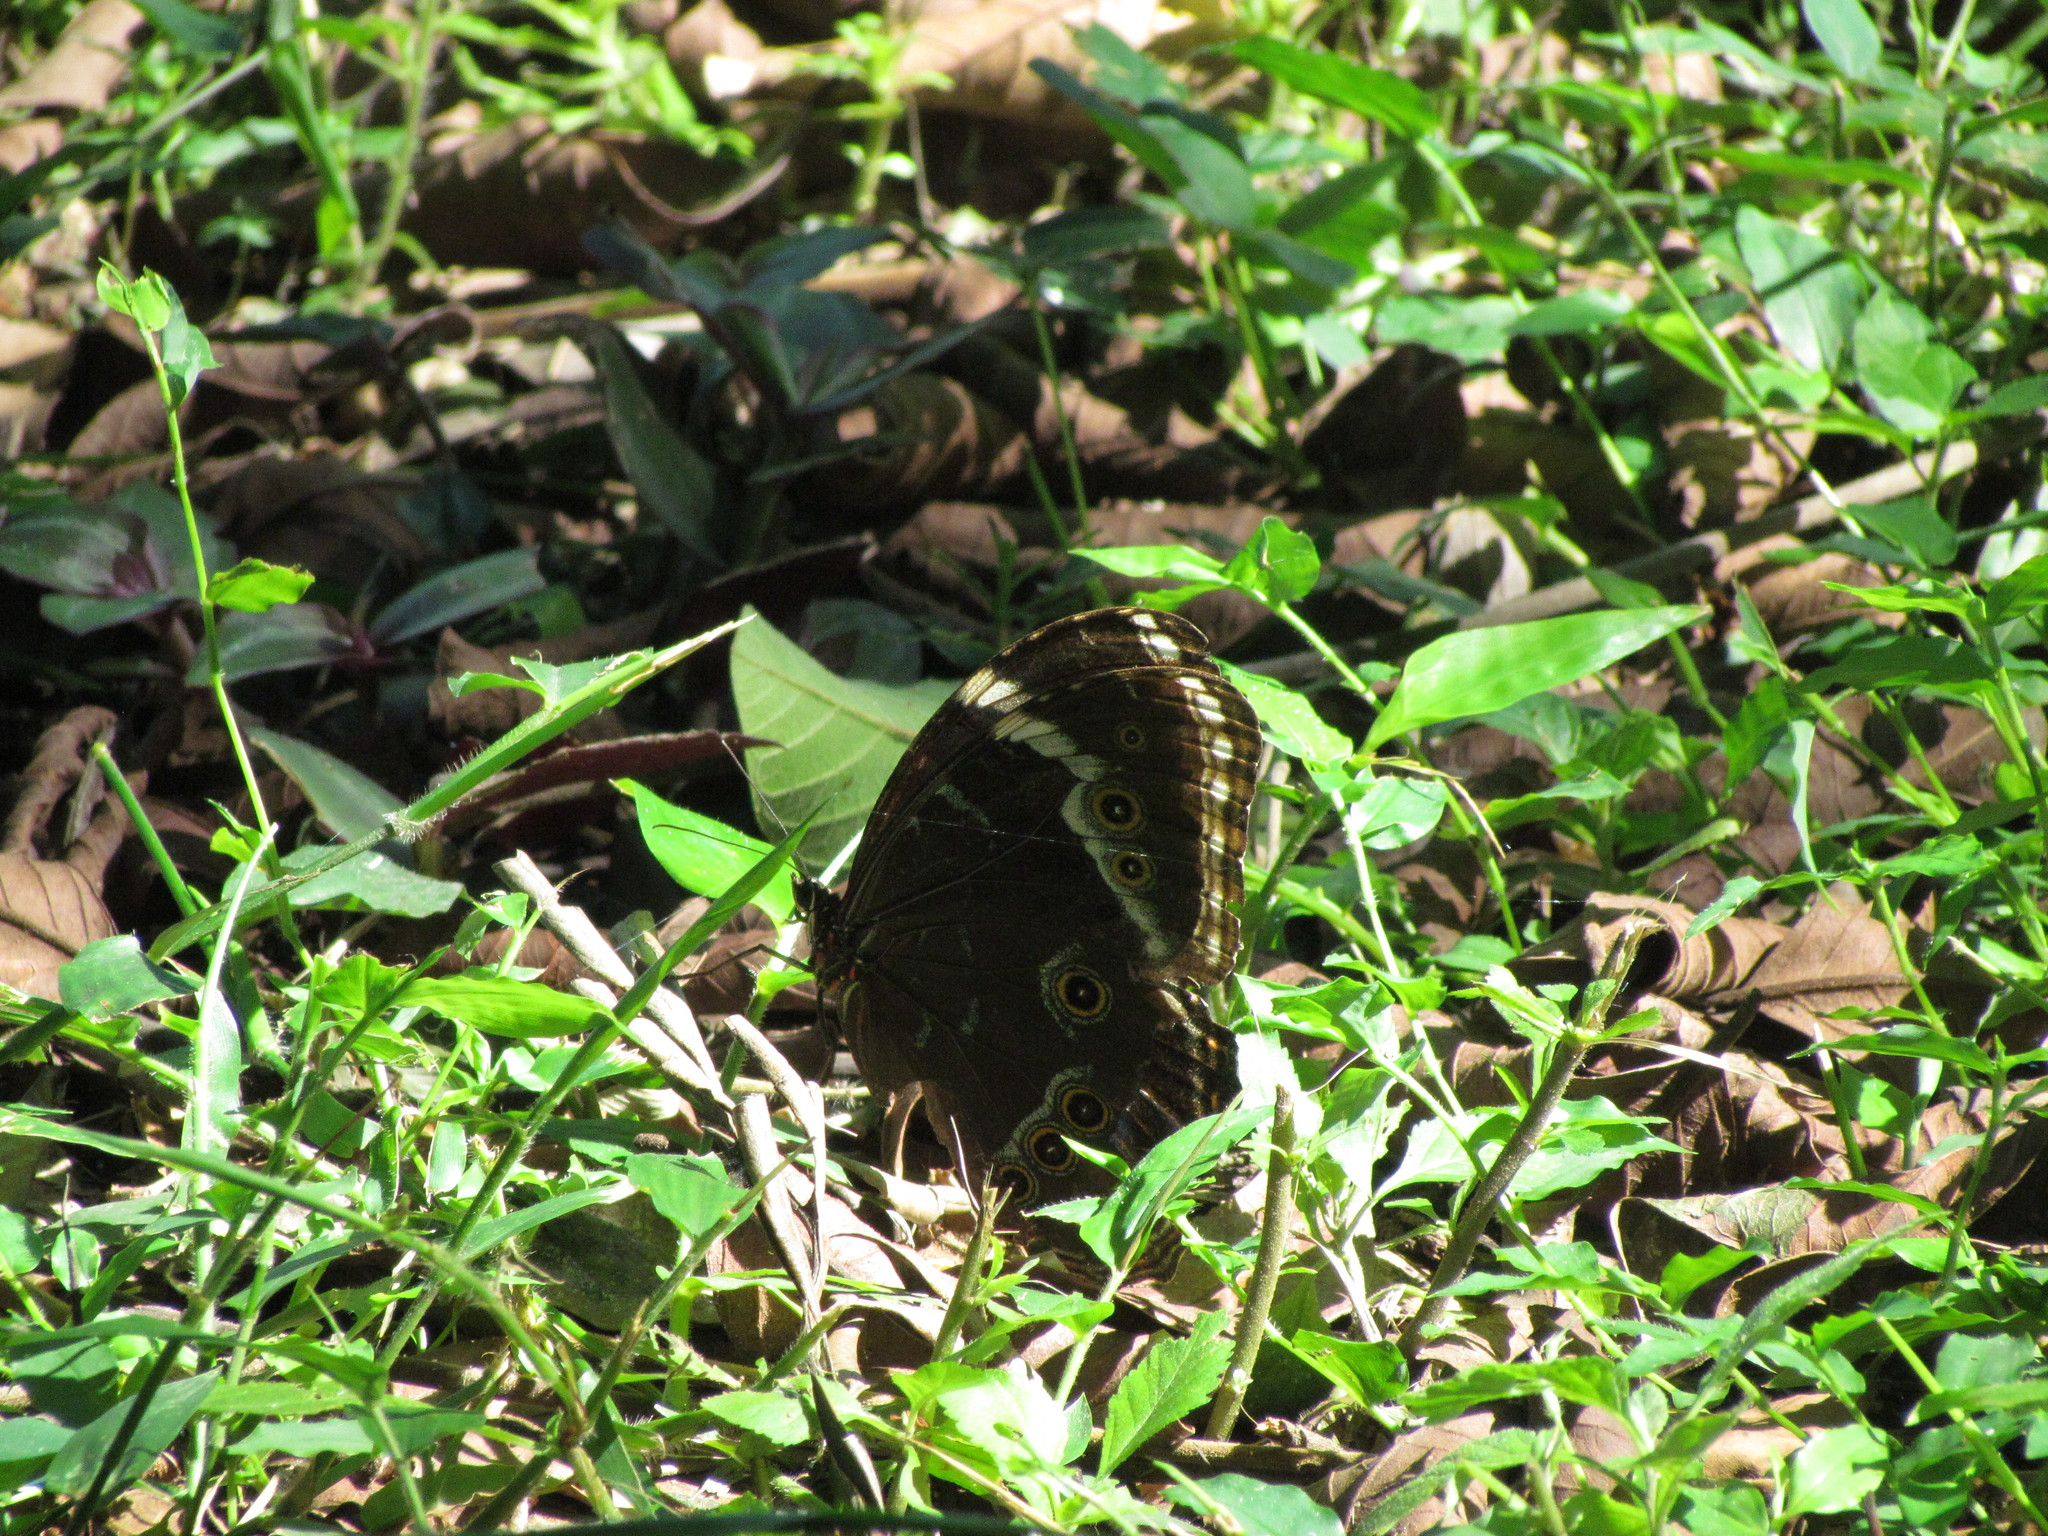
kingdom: Animalia
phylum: Arthropoda
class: Insecta
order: Lepidoptera
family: Nymphalidae
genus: Morpho
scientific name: Morpho helenor
